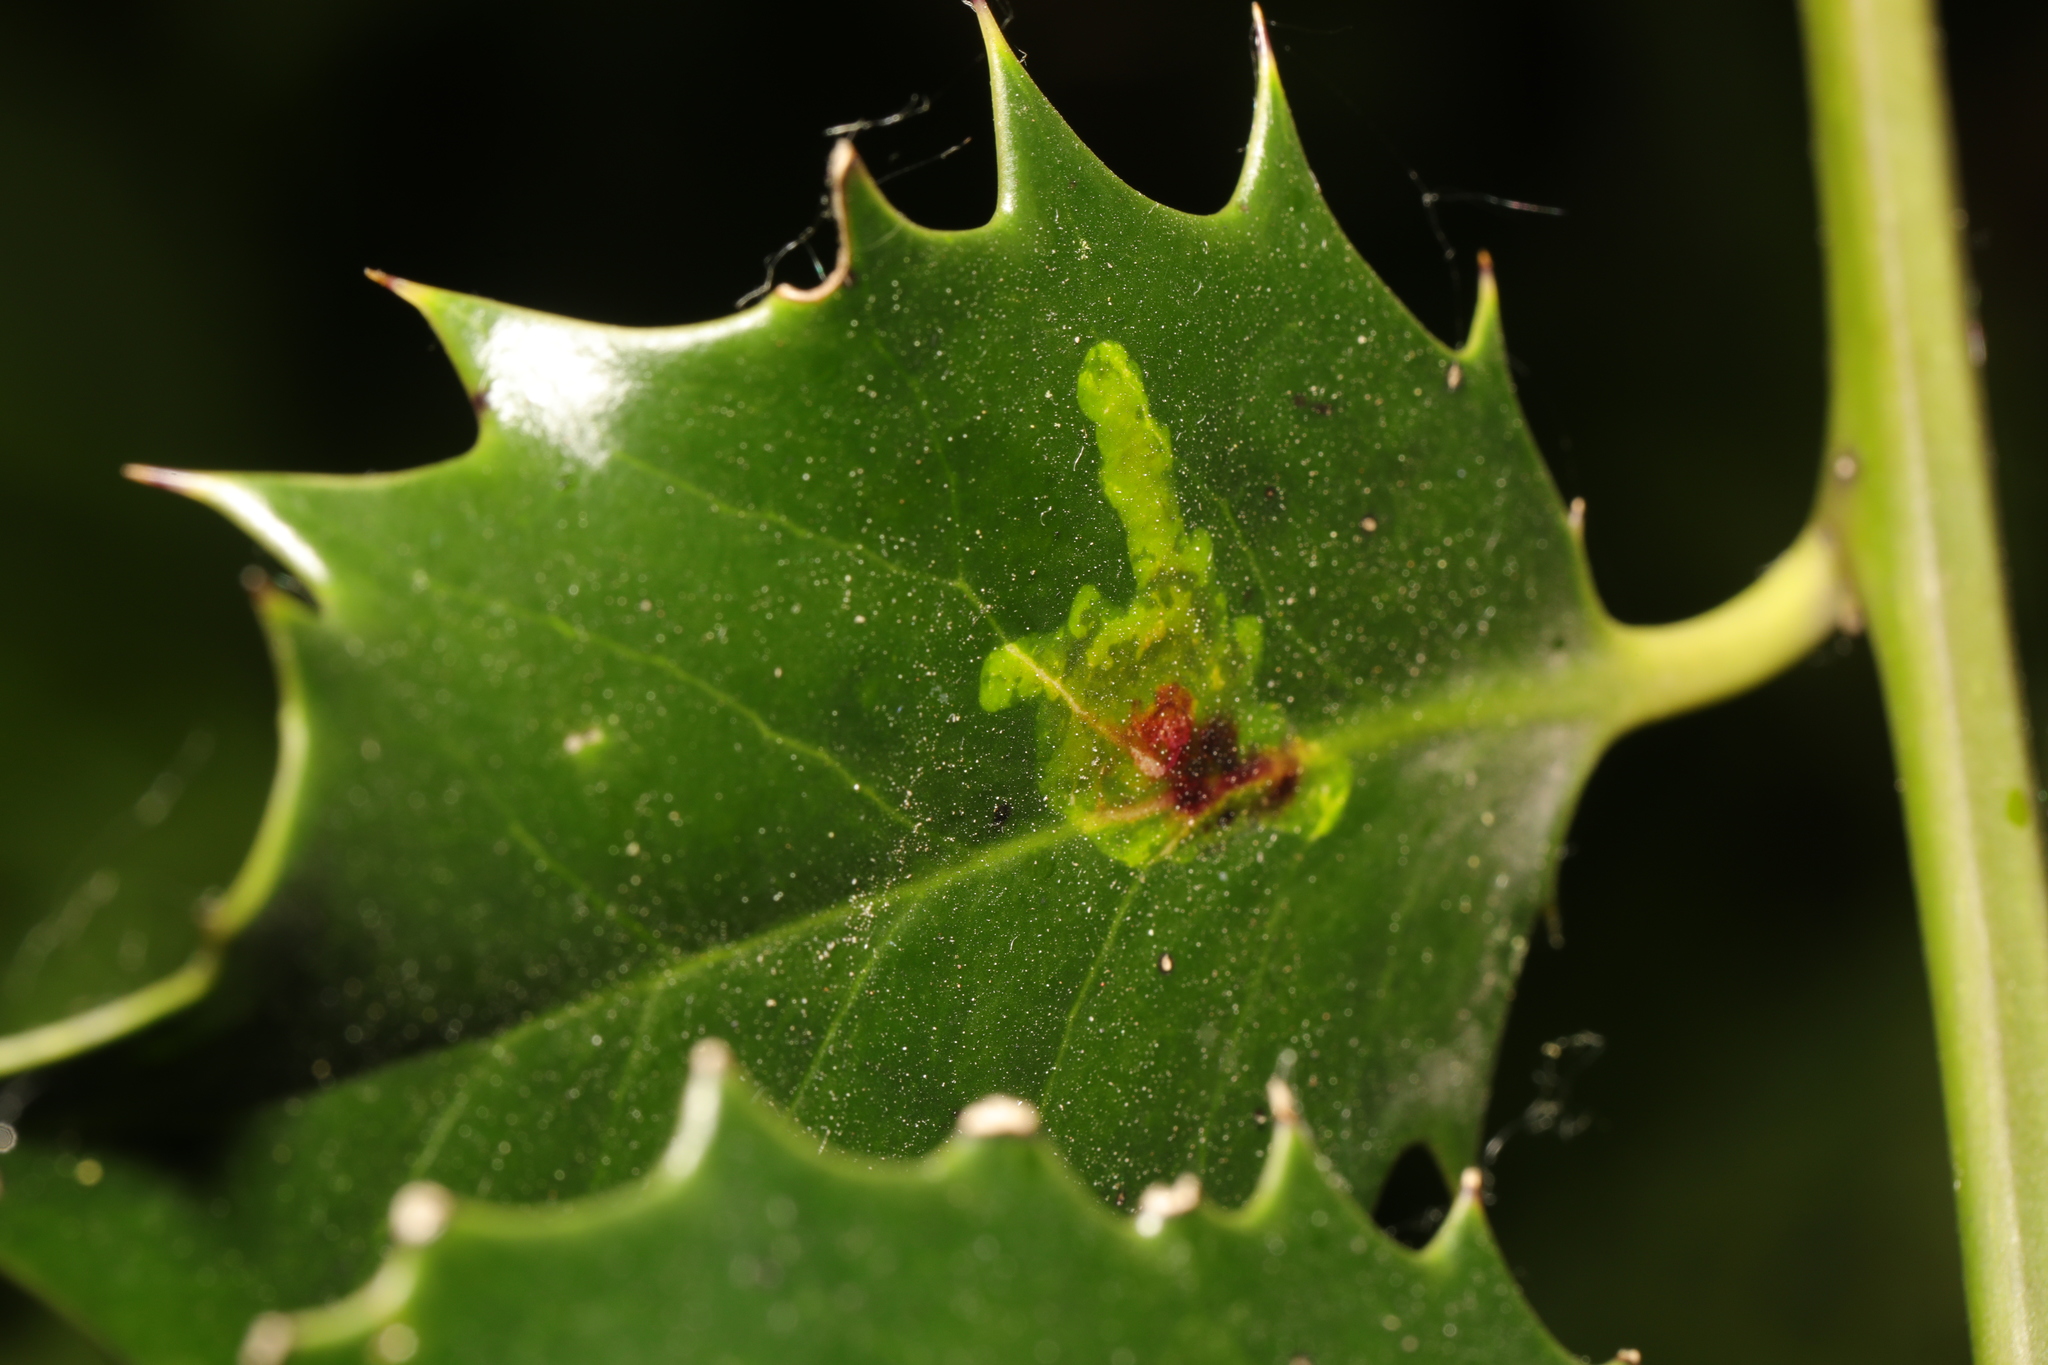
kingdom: Animalia
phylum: Arthropoda
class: Insecta
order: Diptera
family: Agromyzidae
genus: Phytomyza
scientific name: Phytomyza ilicis
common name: Holly leafminer
